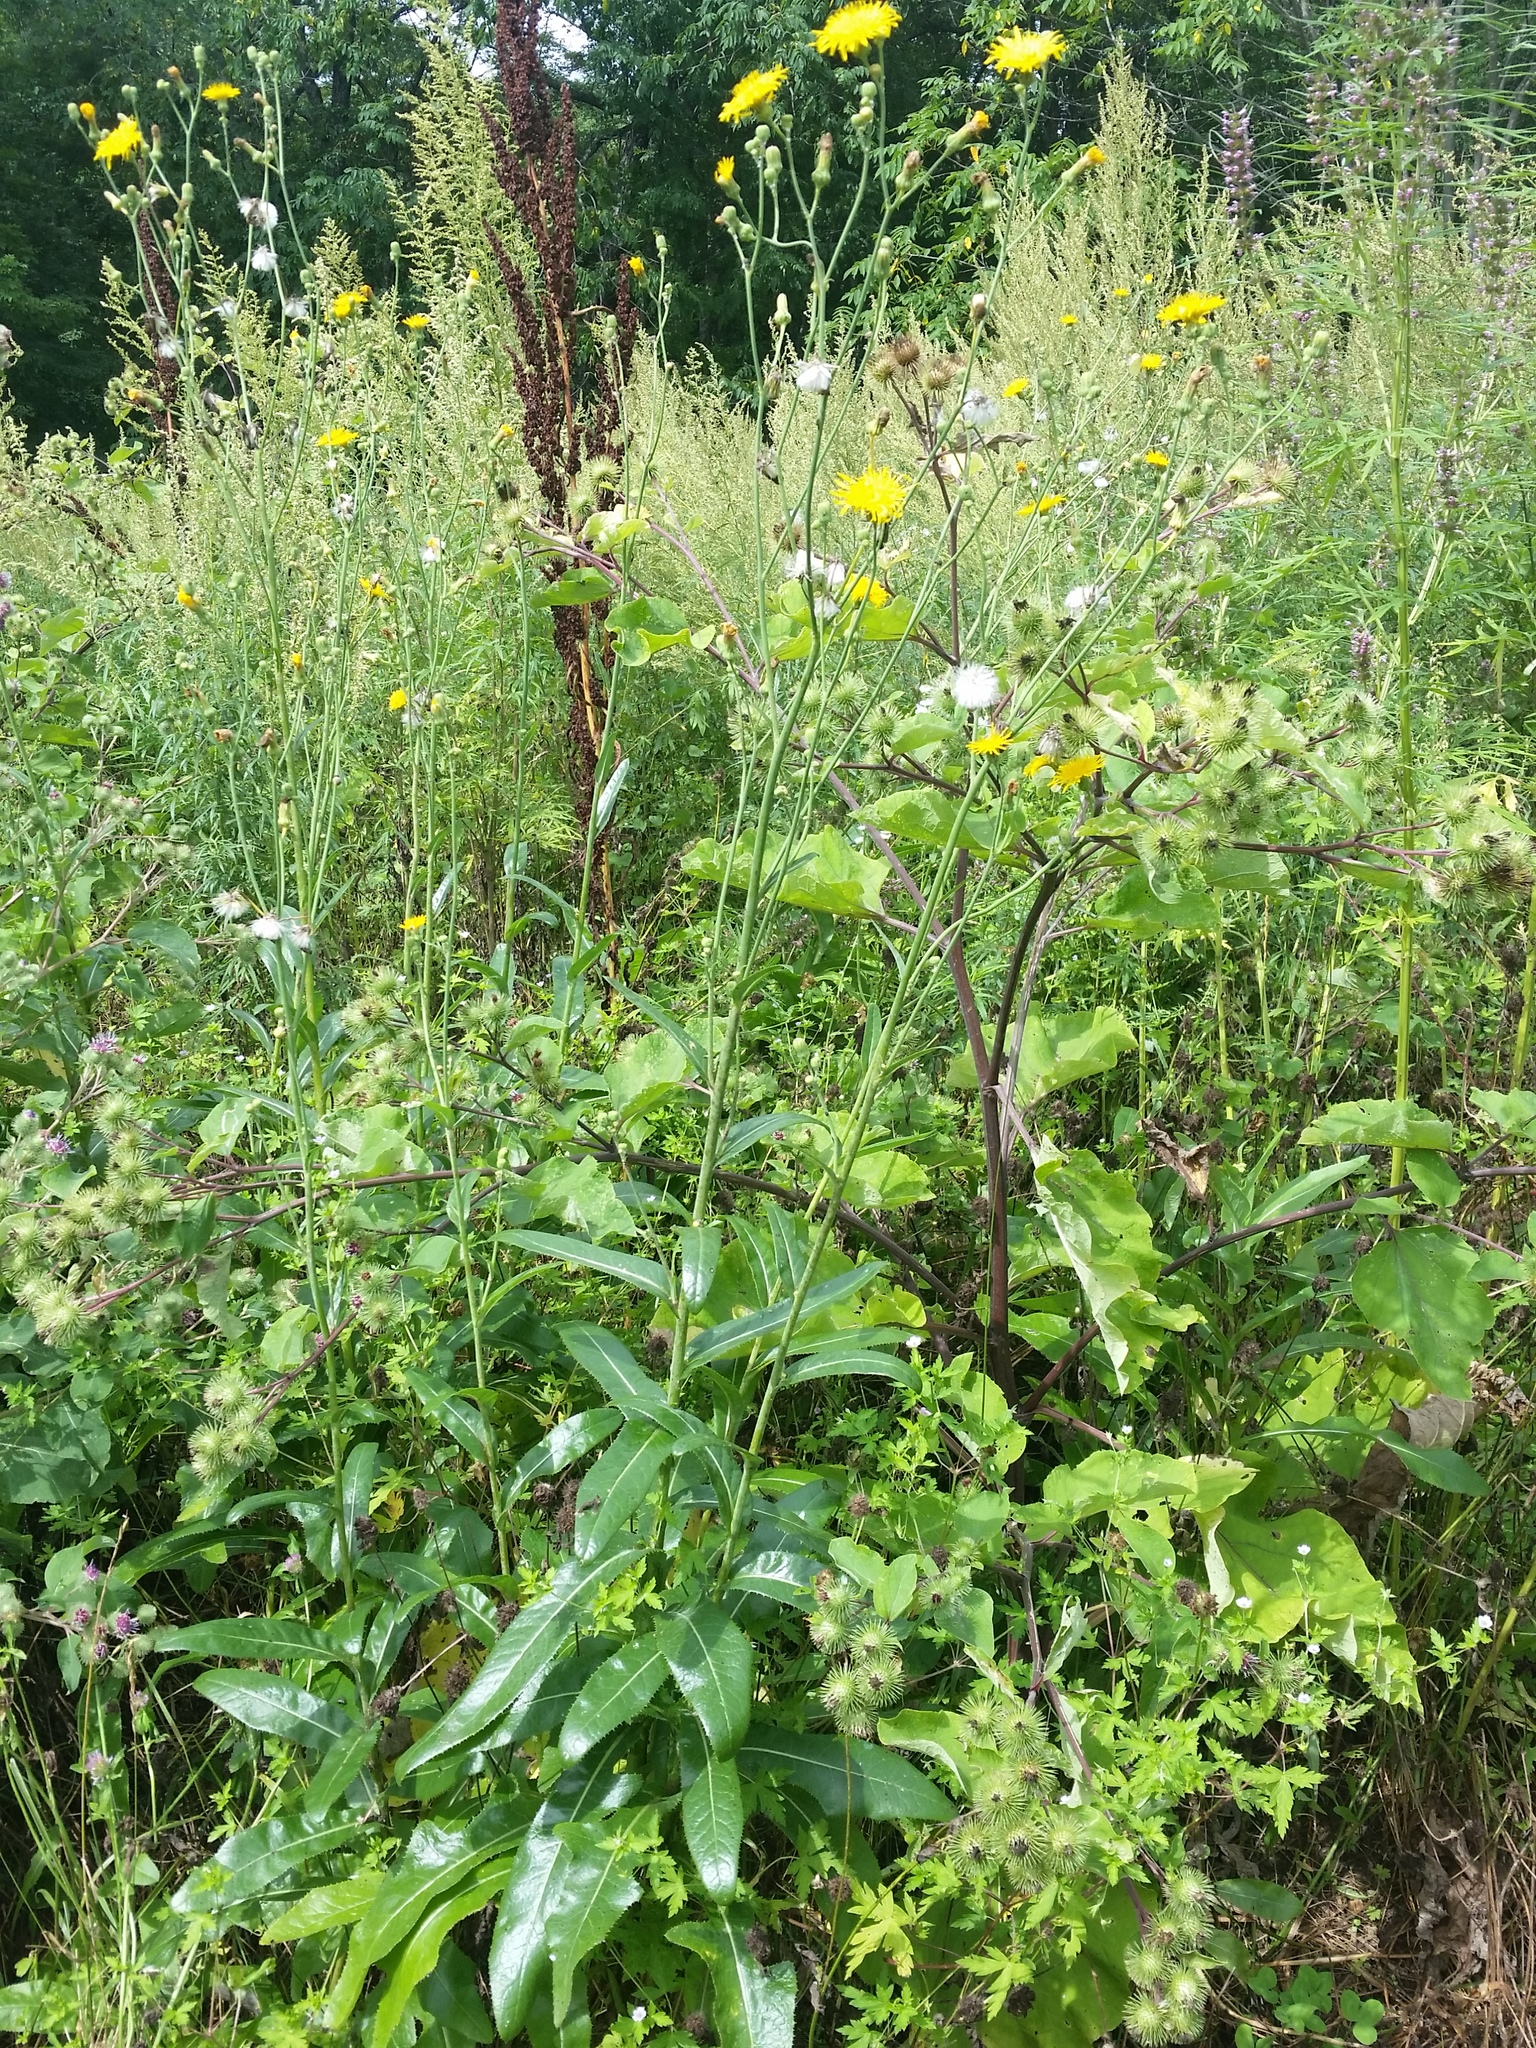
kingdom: Plantae
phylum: Tracheophyta
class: Magnoliopsida
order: Asterales
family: Asteraceae
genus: Sonchus
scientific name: Sonchus arvensis
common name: Perennial sow-thistle
